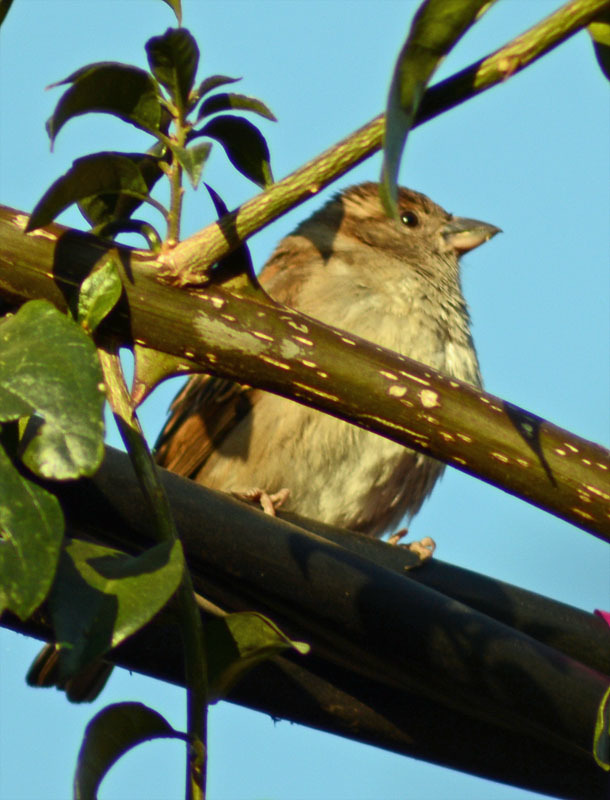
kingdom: Animalia
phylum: Chordata
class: Aves
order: Passeriformes
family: Passeridae
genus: Passer
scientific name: Passer domesticus
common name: House sparrow
